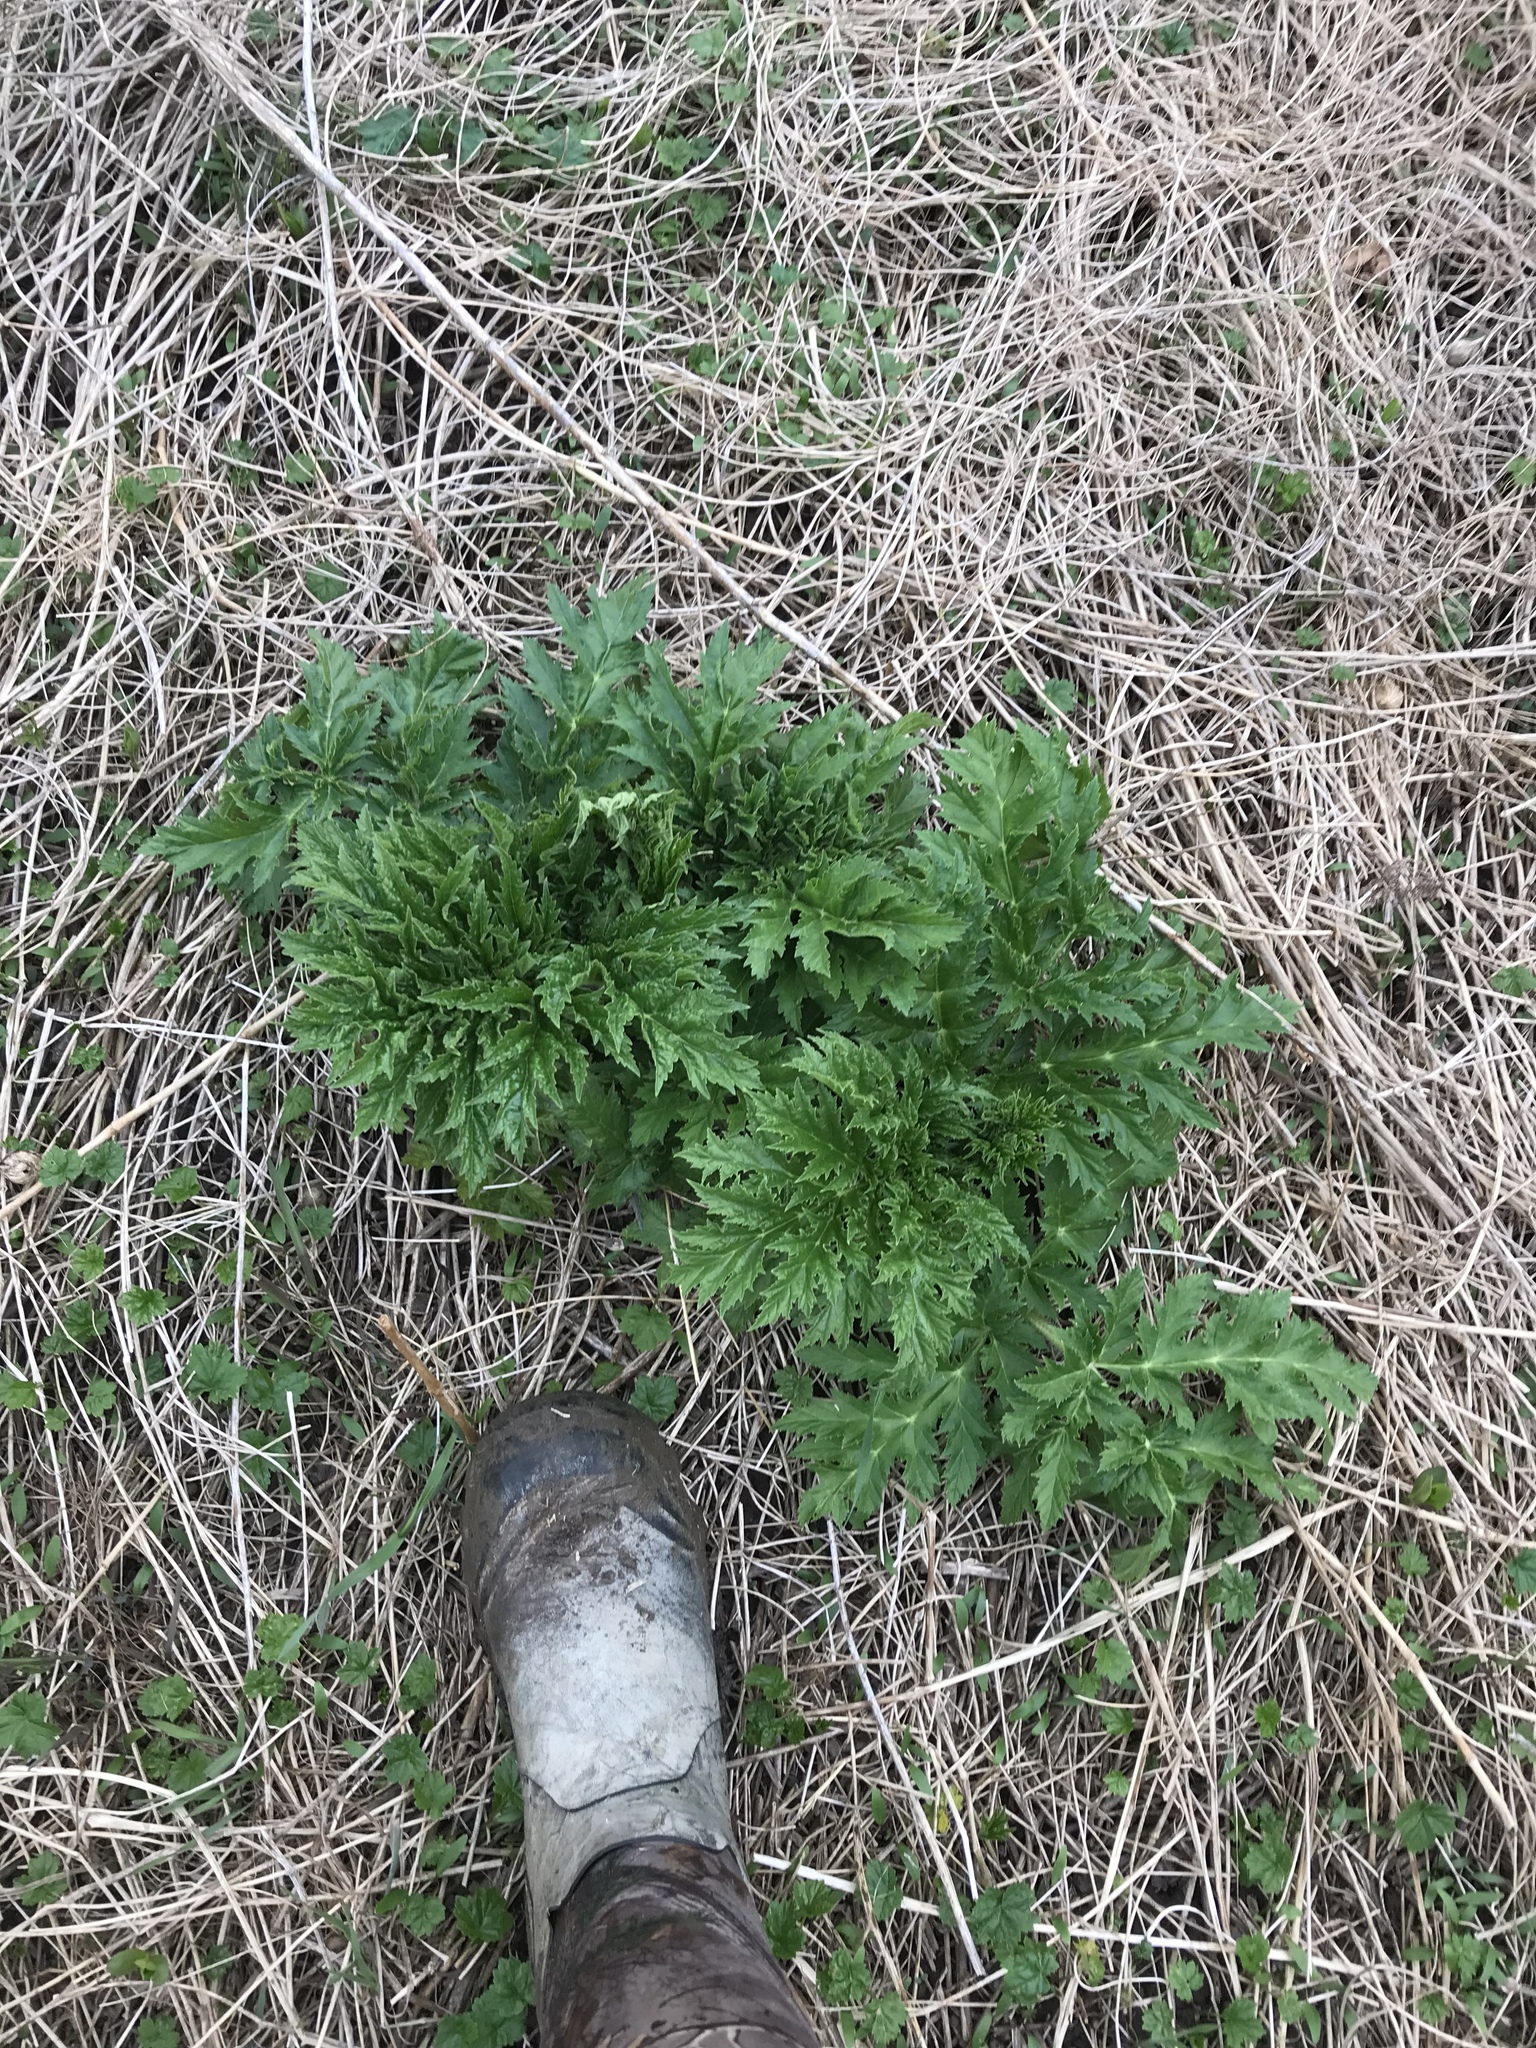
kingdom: Plantae
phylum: Tracheophyta
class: Magnoliopsida
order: Apiales
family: Apiaceae
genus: Heracleum
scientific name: Heracleum mantegazzianum
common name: Giant hogweed
